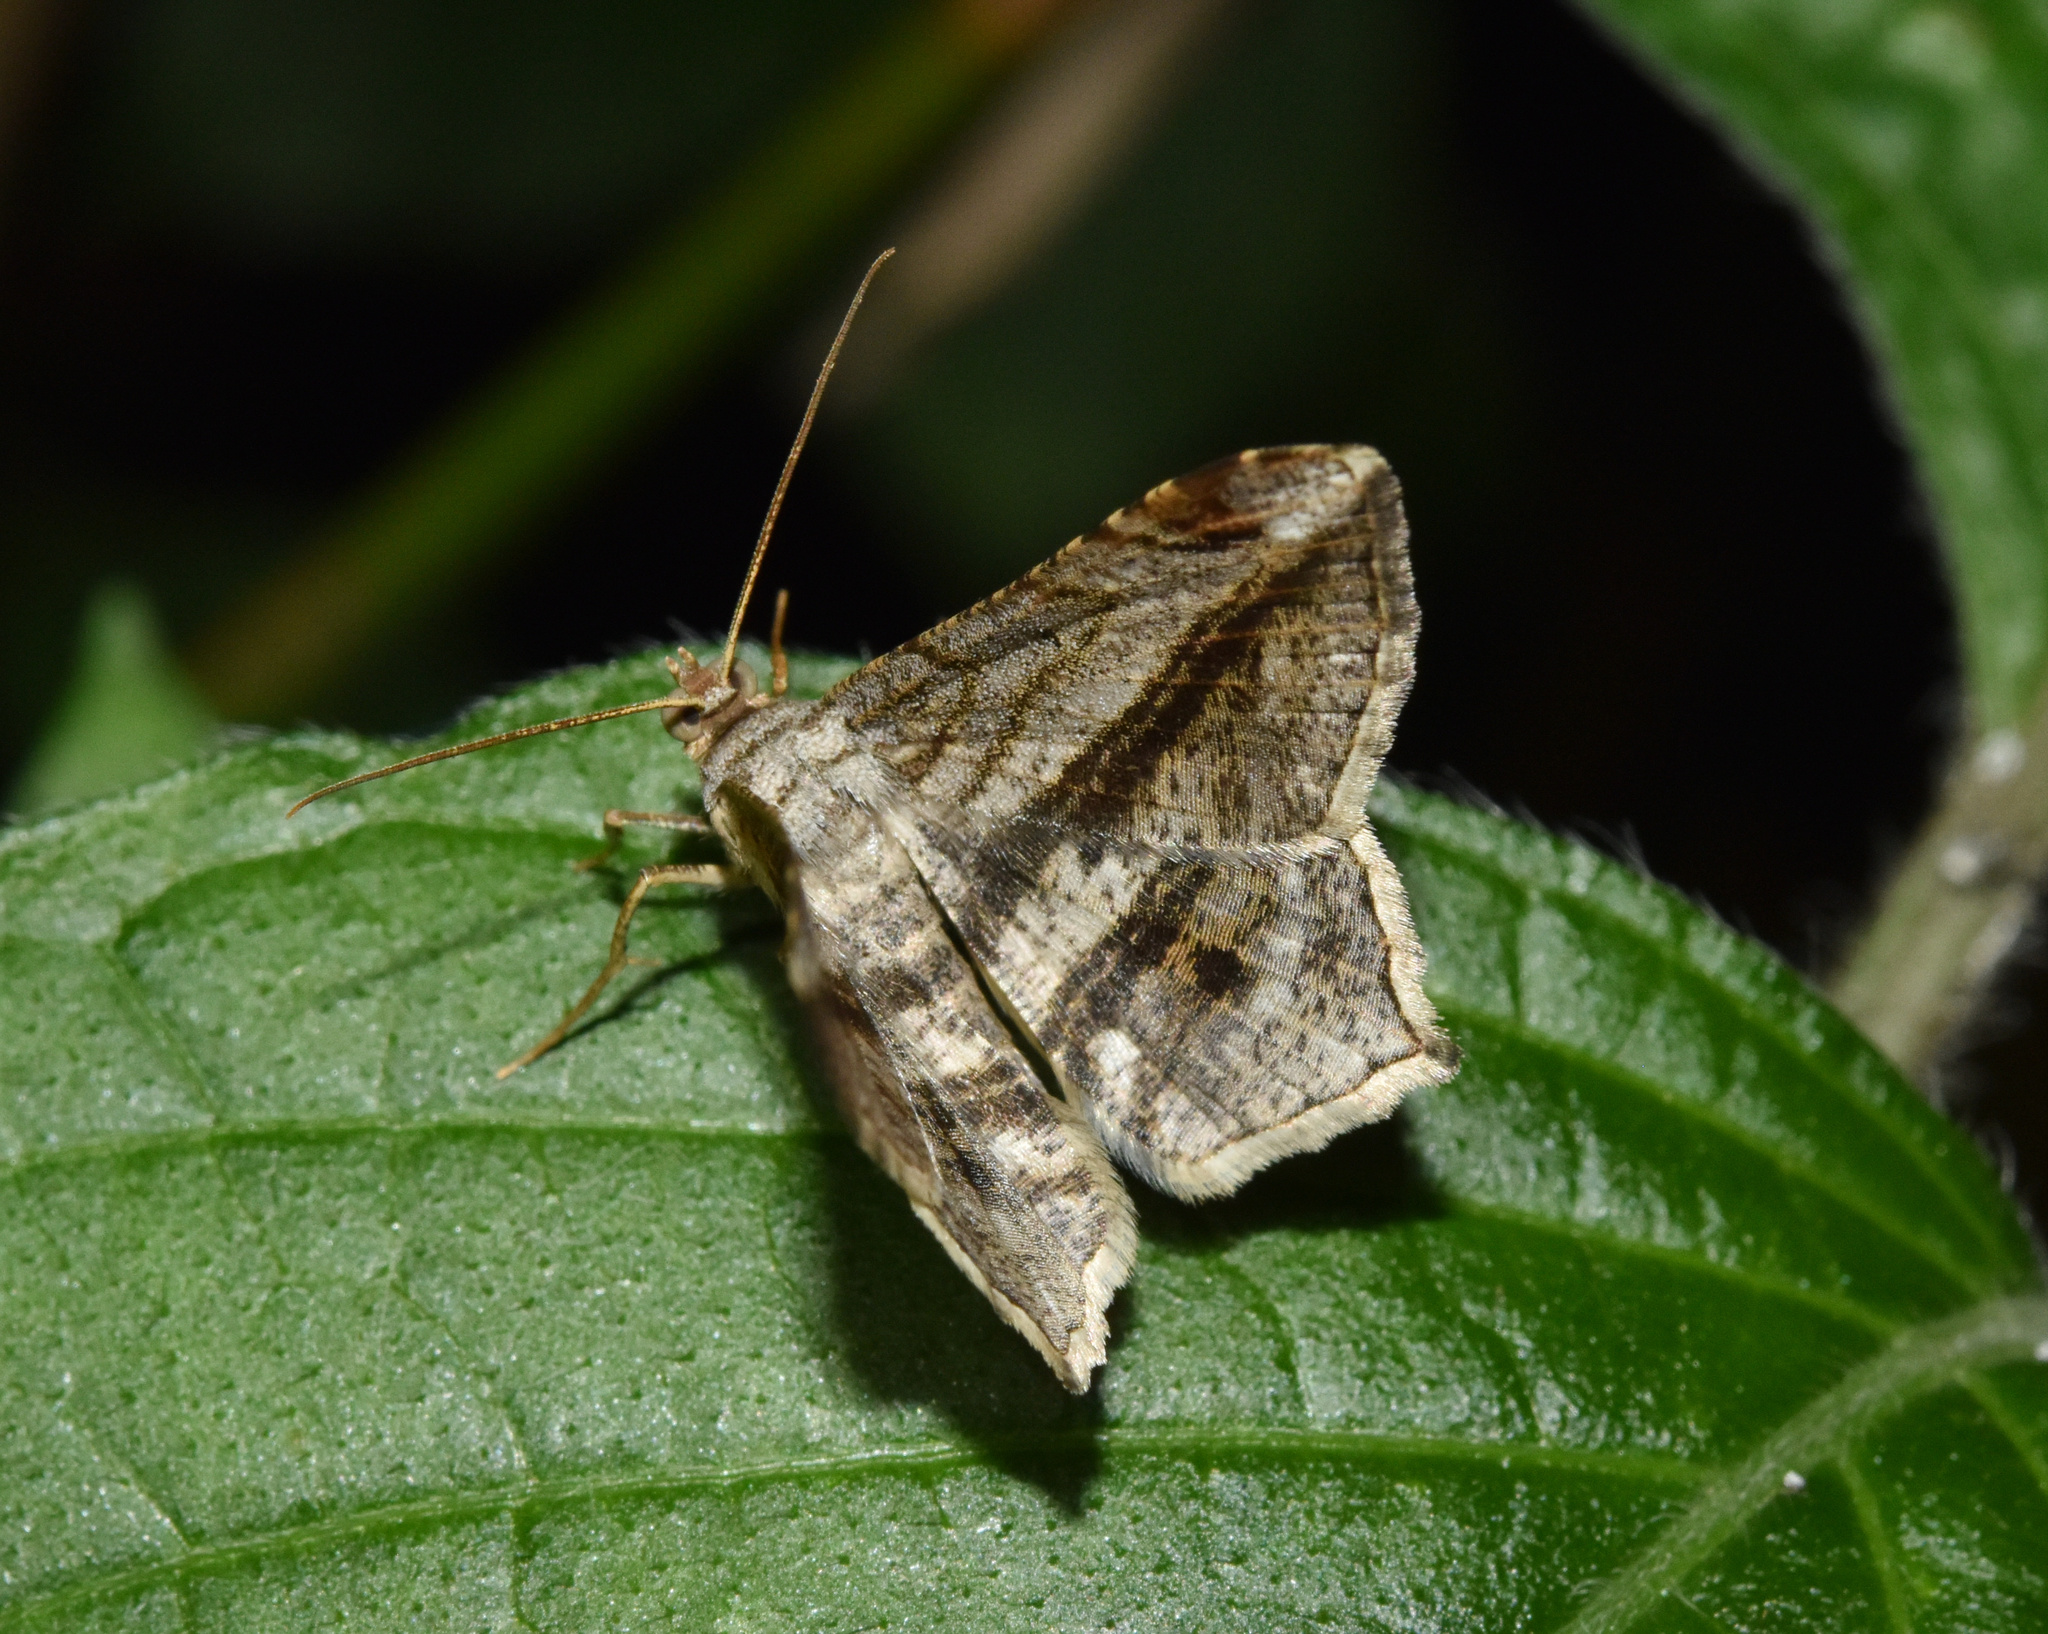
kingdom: Animalia
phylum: Arthropoda
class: Insecta
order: Lepidoptera
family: Geometridae
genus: Chiasmia
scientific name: Chiasmia rectistriaria
